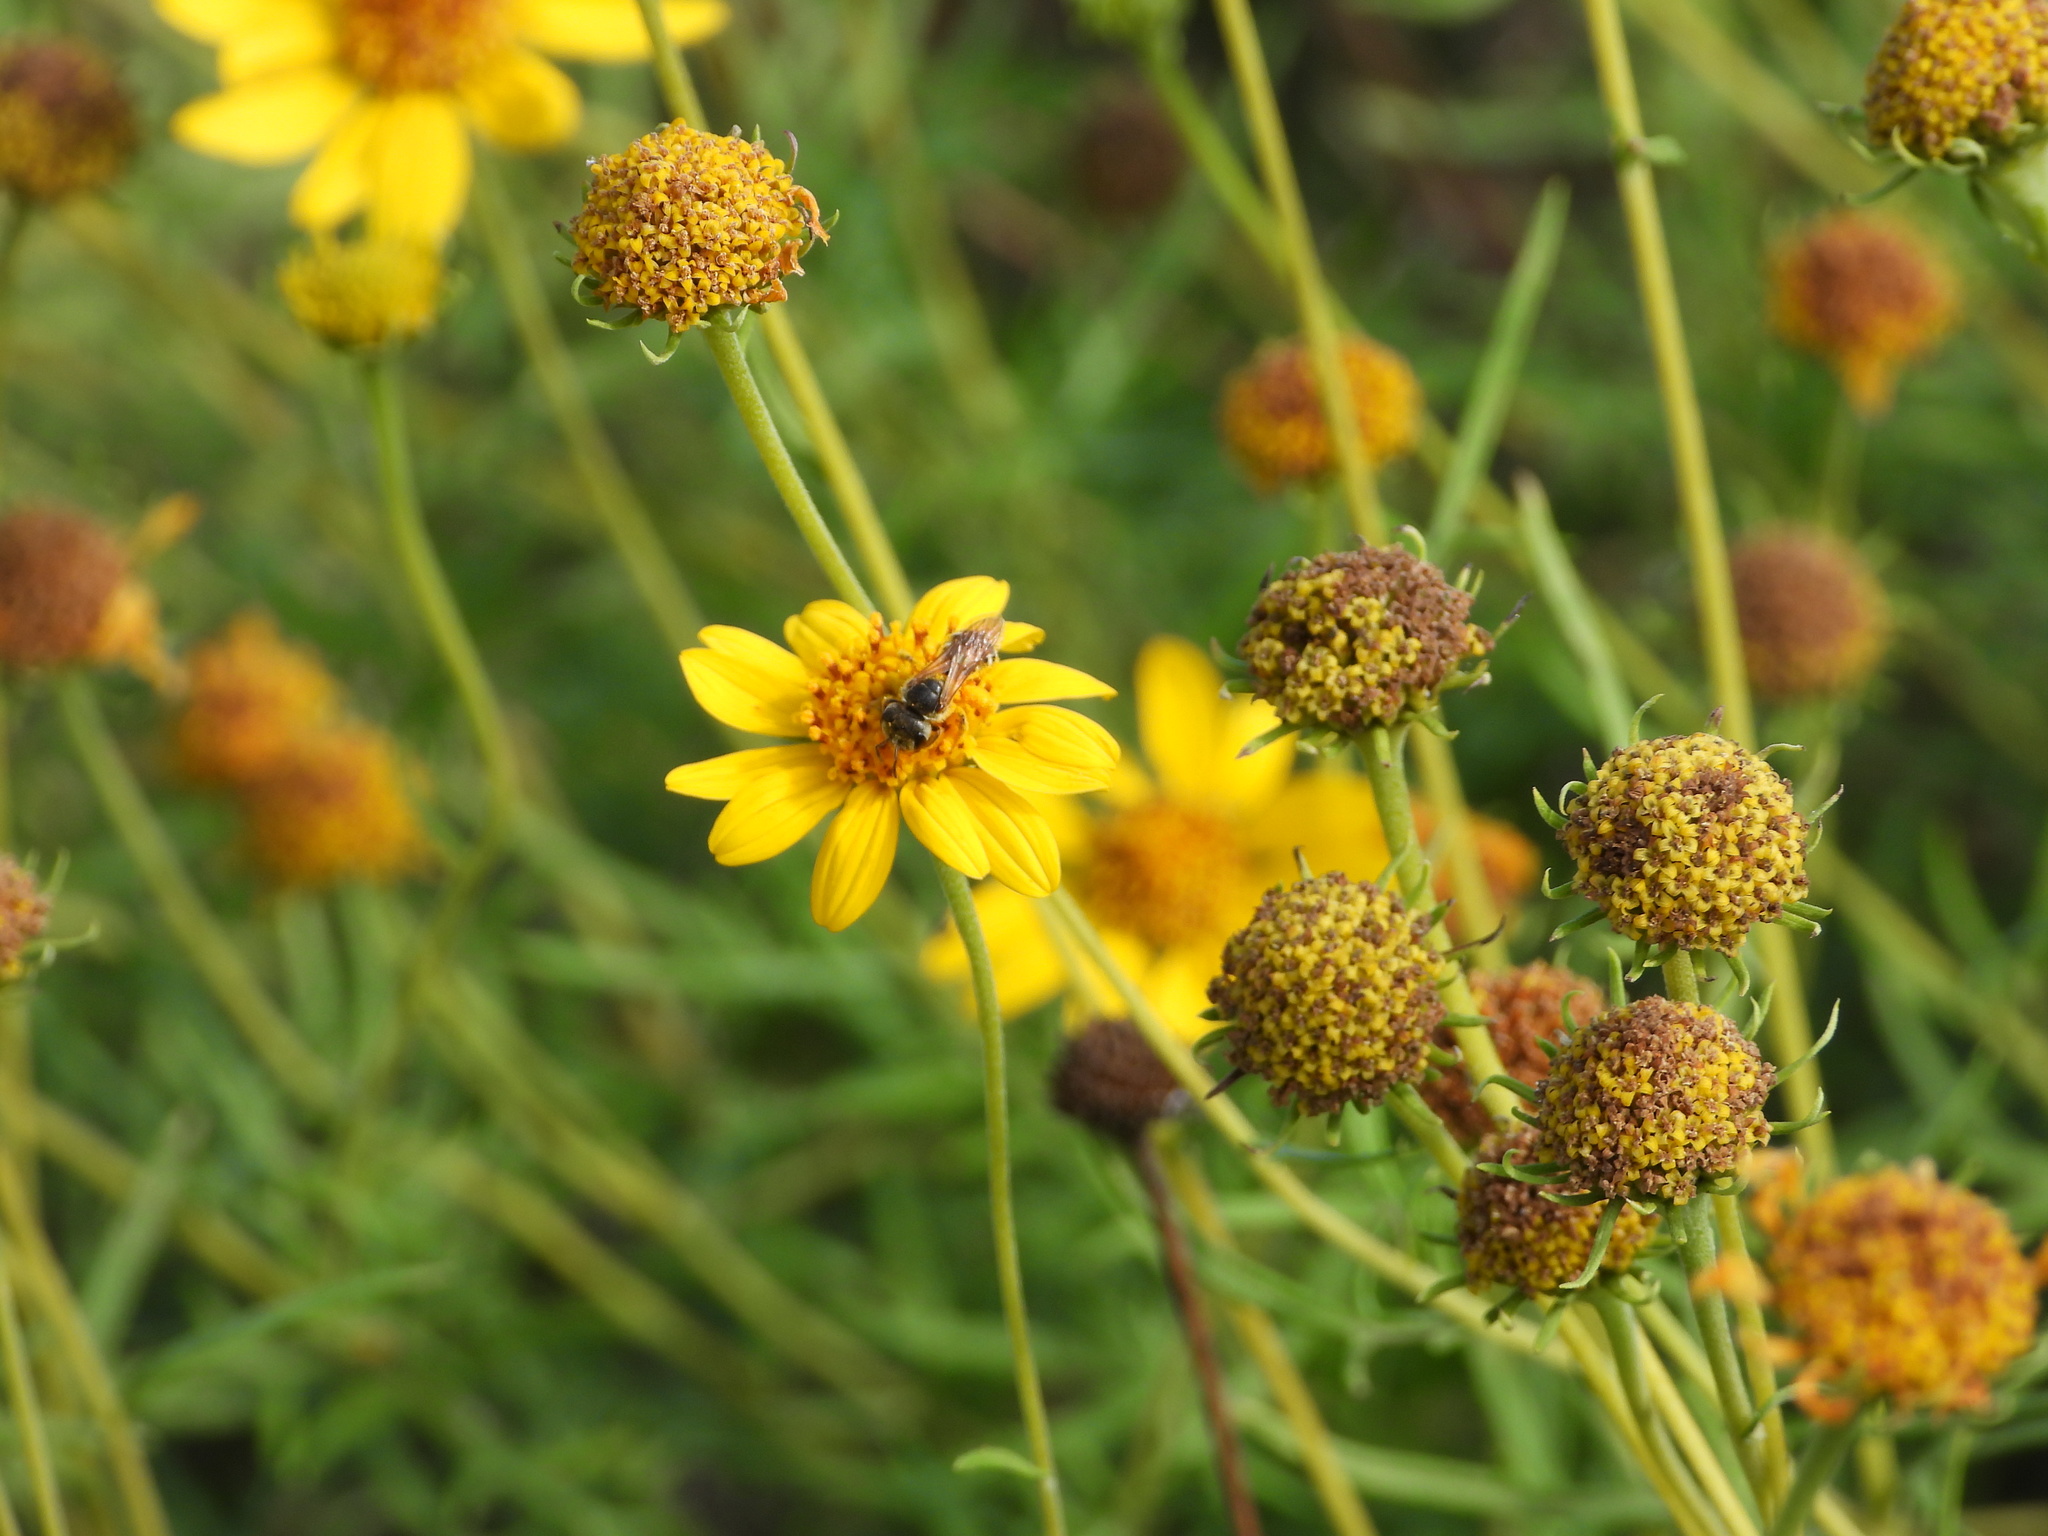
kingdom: Animalia
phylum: Arthropoda
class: Insecta
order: Hymenoptera
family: Halictidae
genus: Halictus
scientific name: Halictus ligatus
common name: Ligated furrow bee
